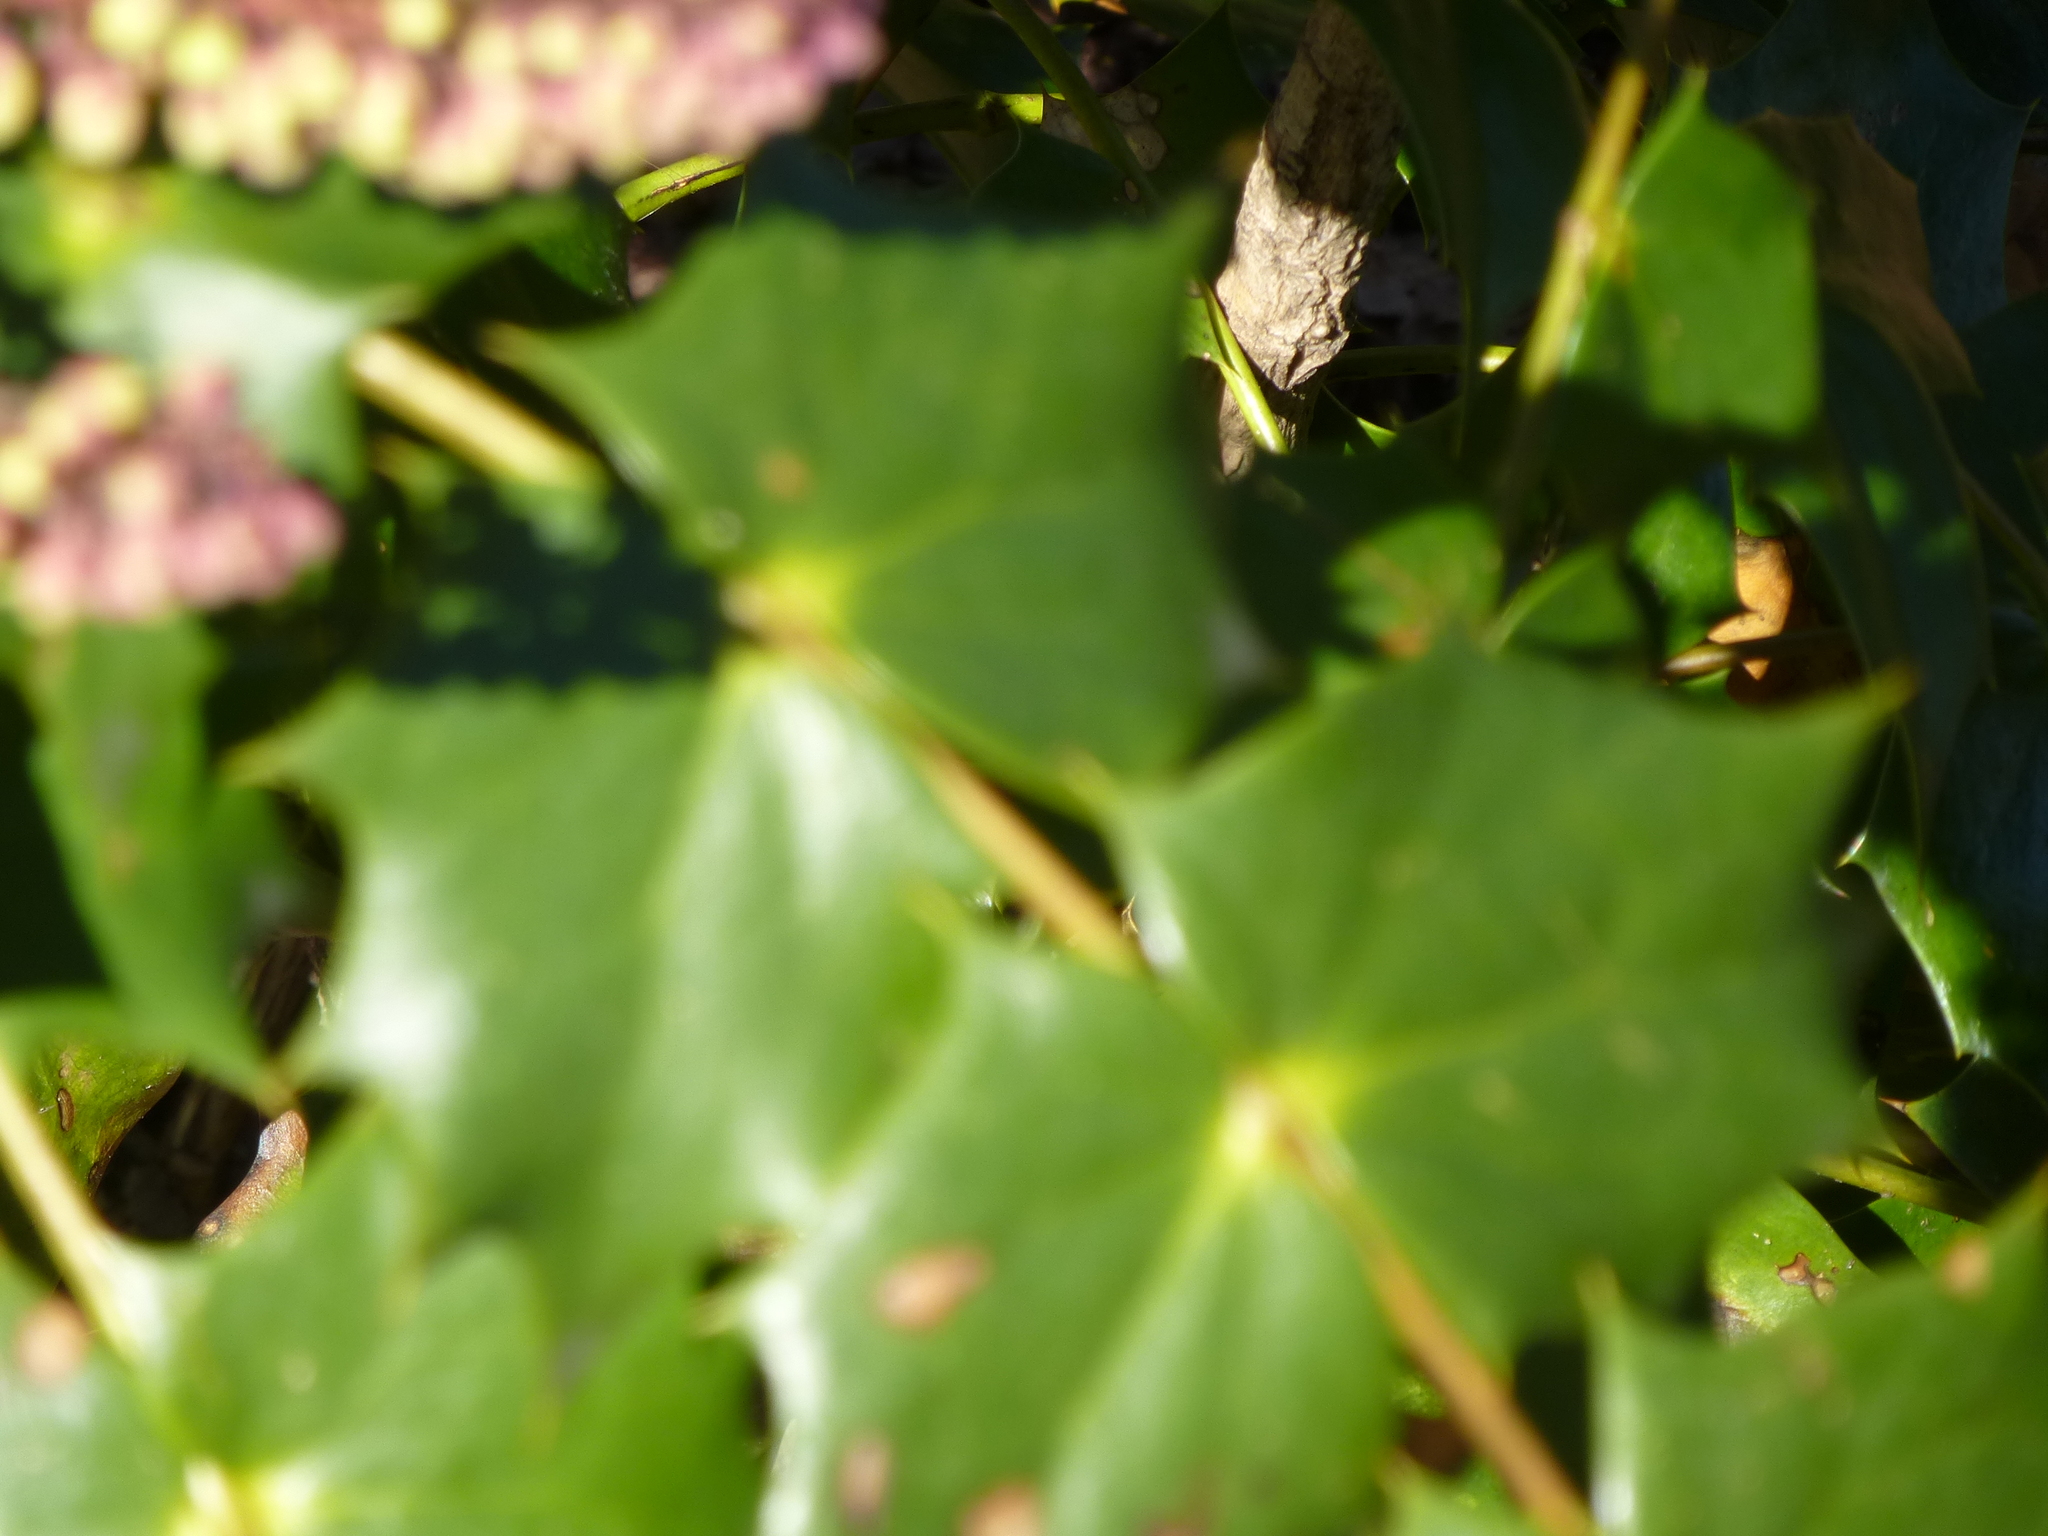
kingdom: Plantae
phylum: Tracheophyta
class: Magnoliopsida
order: Ranunculales
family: Berberidaceae
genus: Mahonia
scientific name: Mahonia bealei
